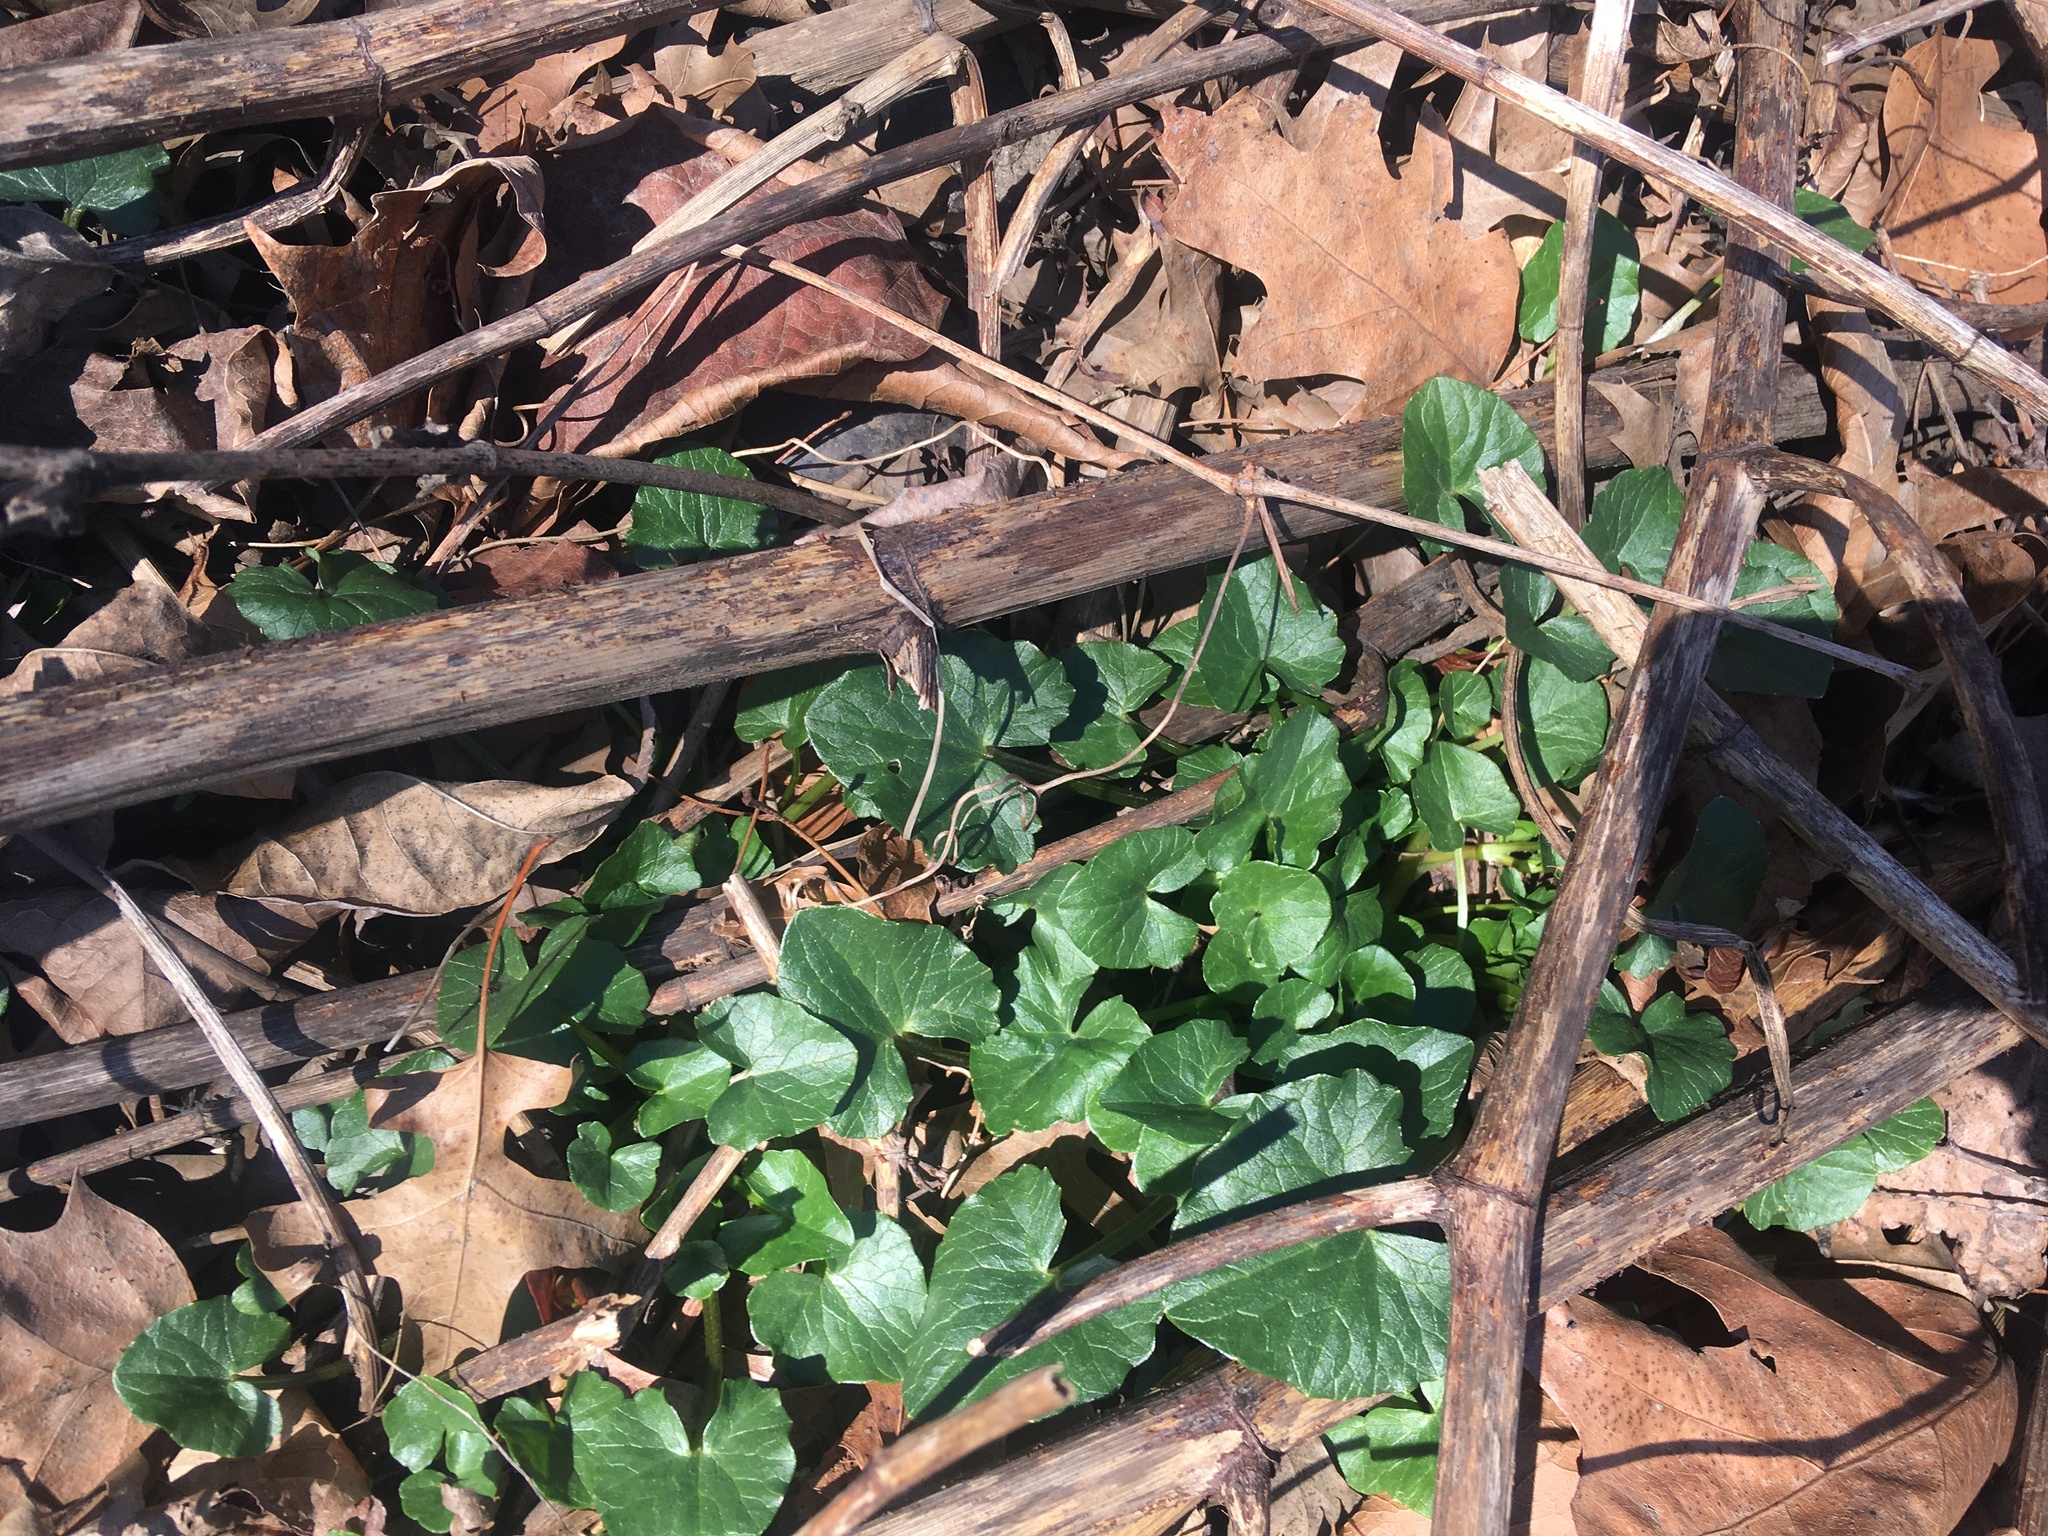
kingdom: Plantae
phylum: Tracheophyta
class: Magnoliopsida
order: Ranunculales
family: Ranunculaceae
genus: Ficaria
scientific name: Ficaria verna
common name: Lesser celandine
